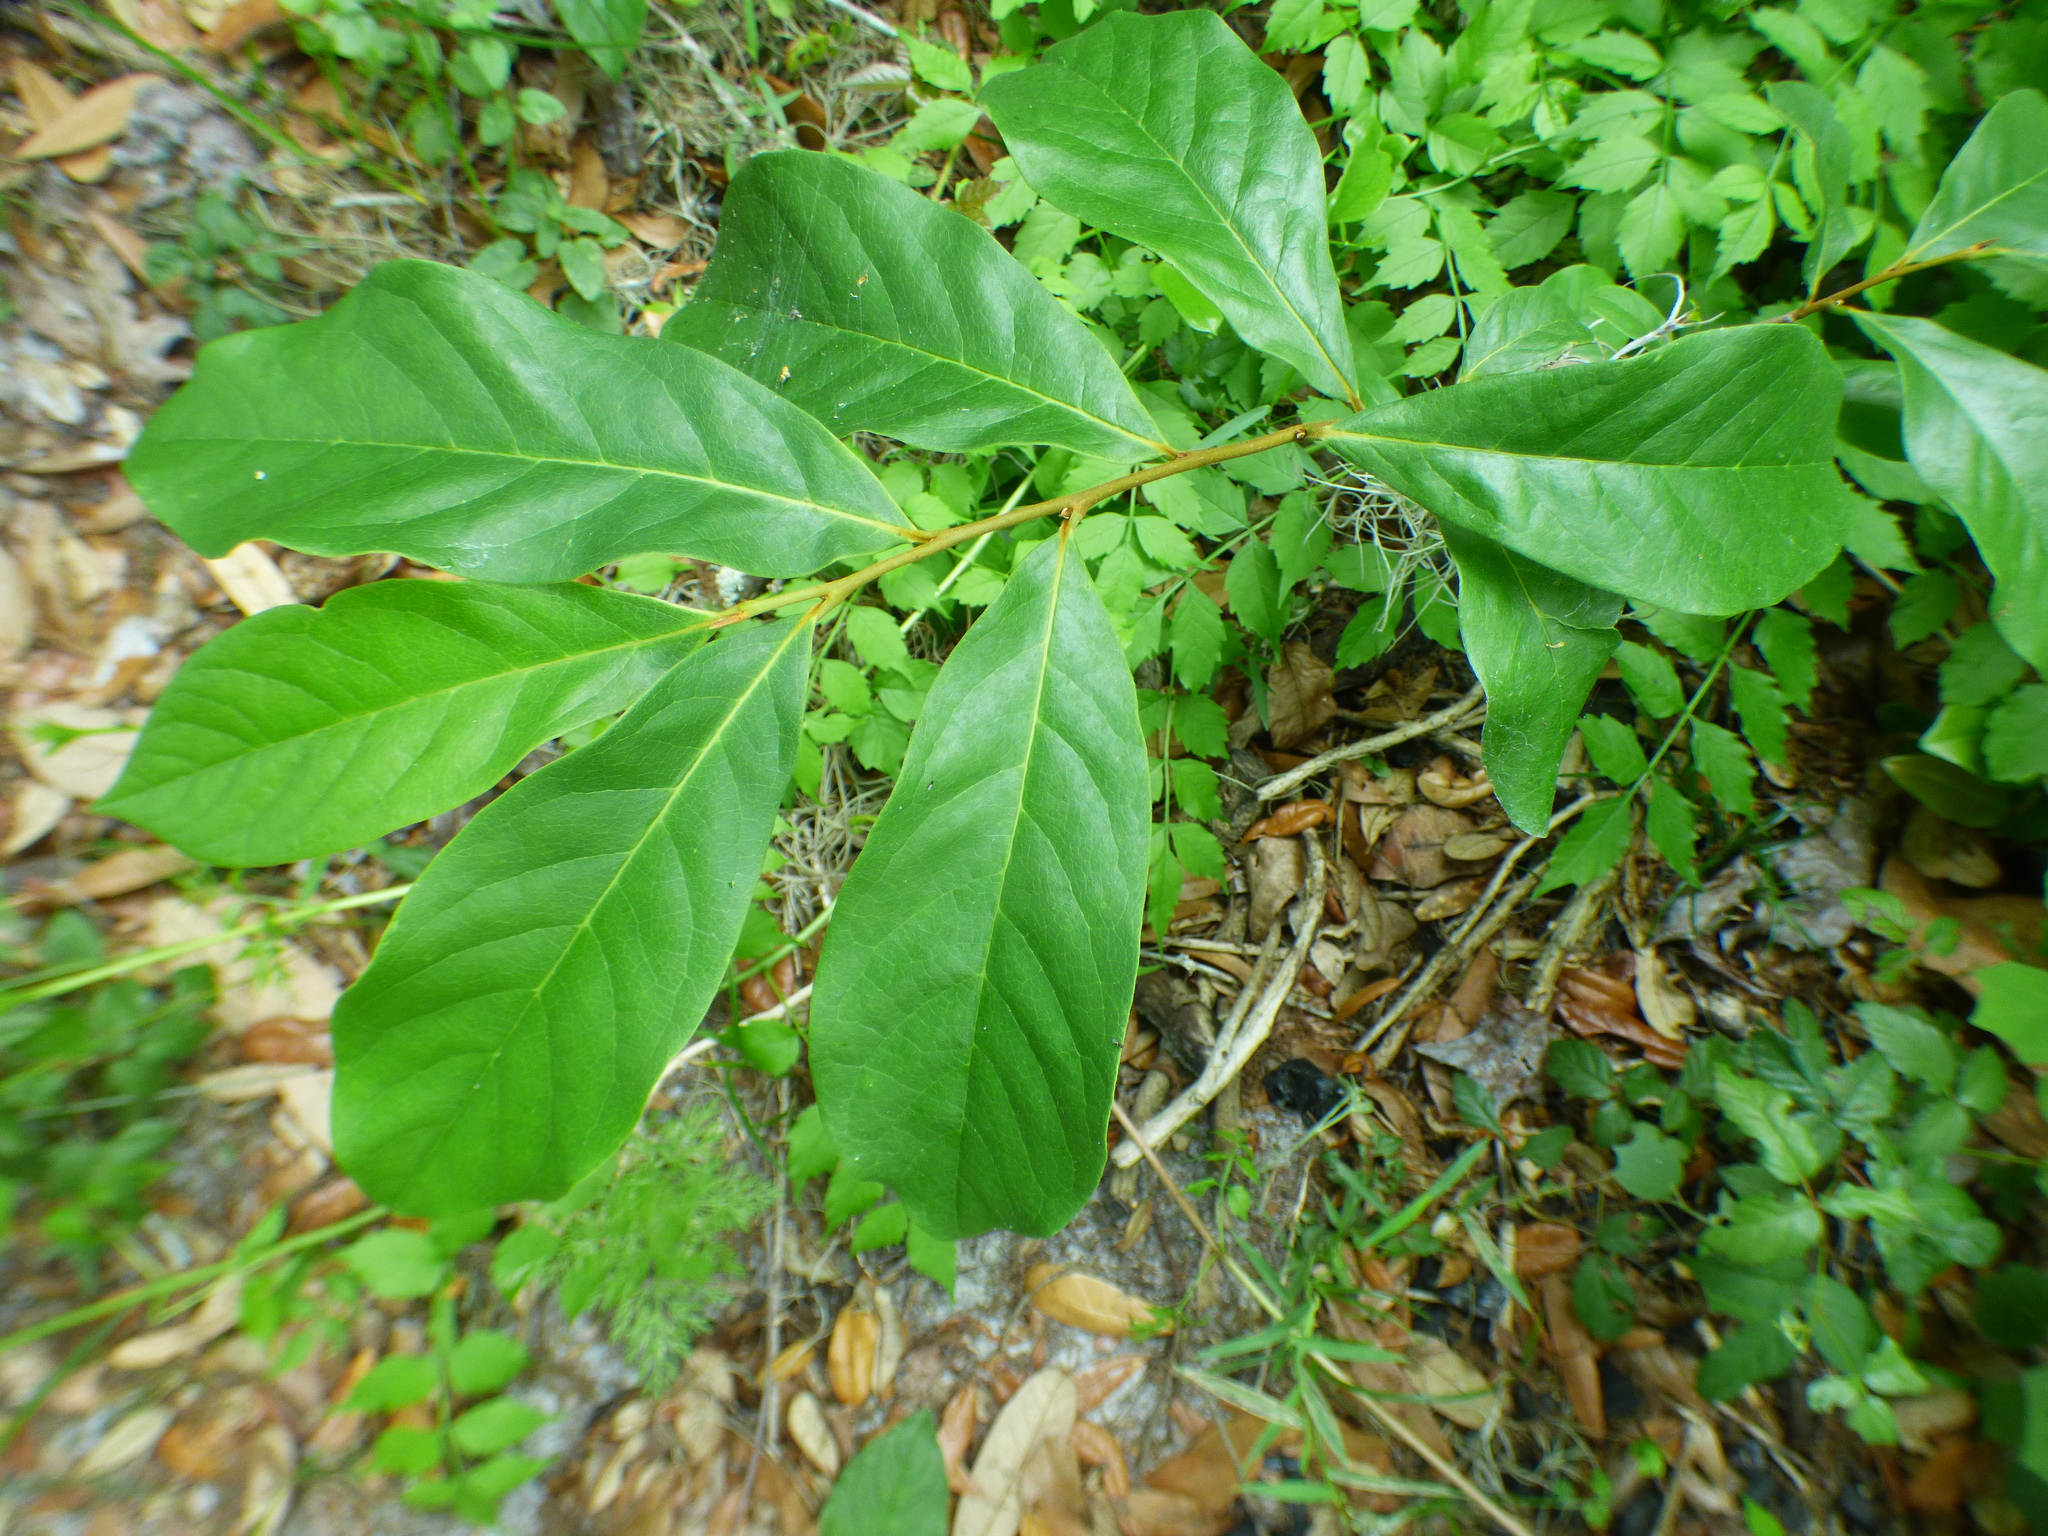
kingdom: Plantae
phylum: Tracheophyta
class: Magnoliopsida
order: Magnoliales
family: Annonaceae
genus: Asimina
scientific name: Asimina parviflora
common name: Dwarf pawpaw
